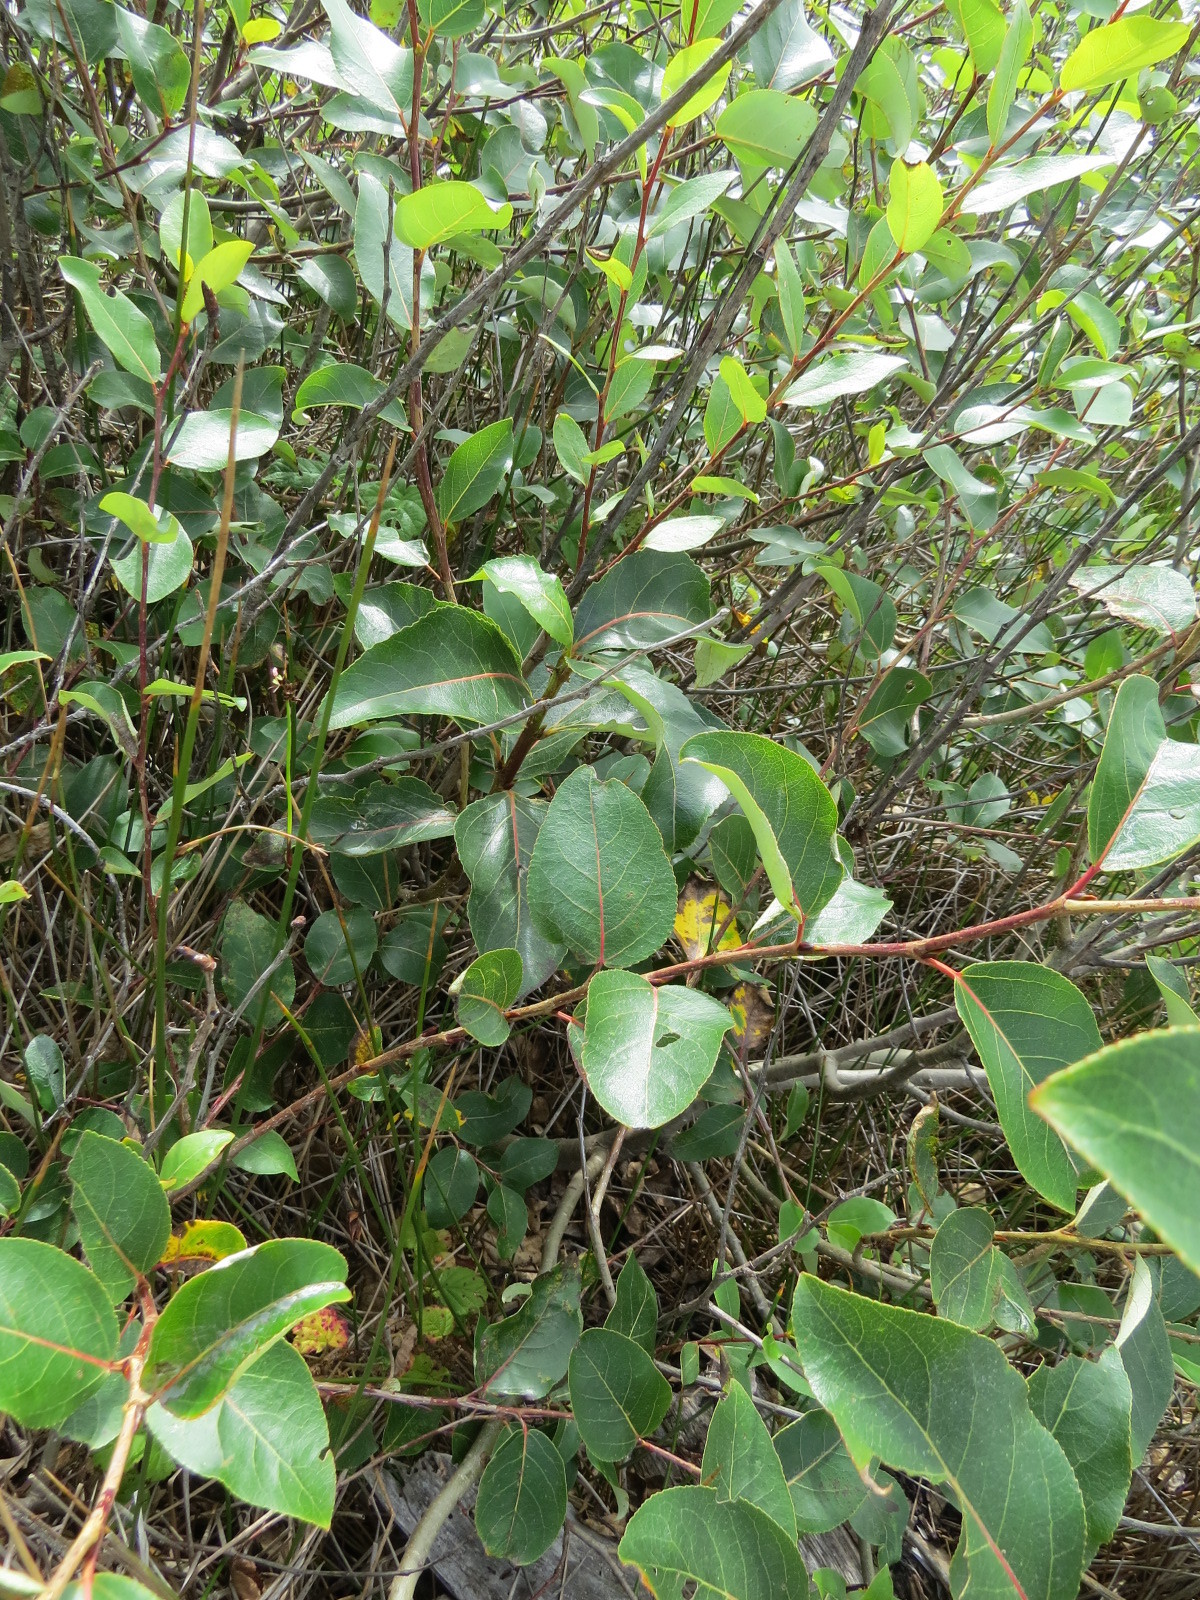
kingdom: Plantae
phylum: Tracheophyta
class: Magnoliopsida
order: Malpighiales
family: Salicaceae
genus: Populus
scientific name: Populus trichocarpa
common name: Black cottonwood
